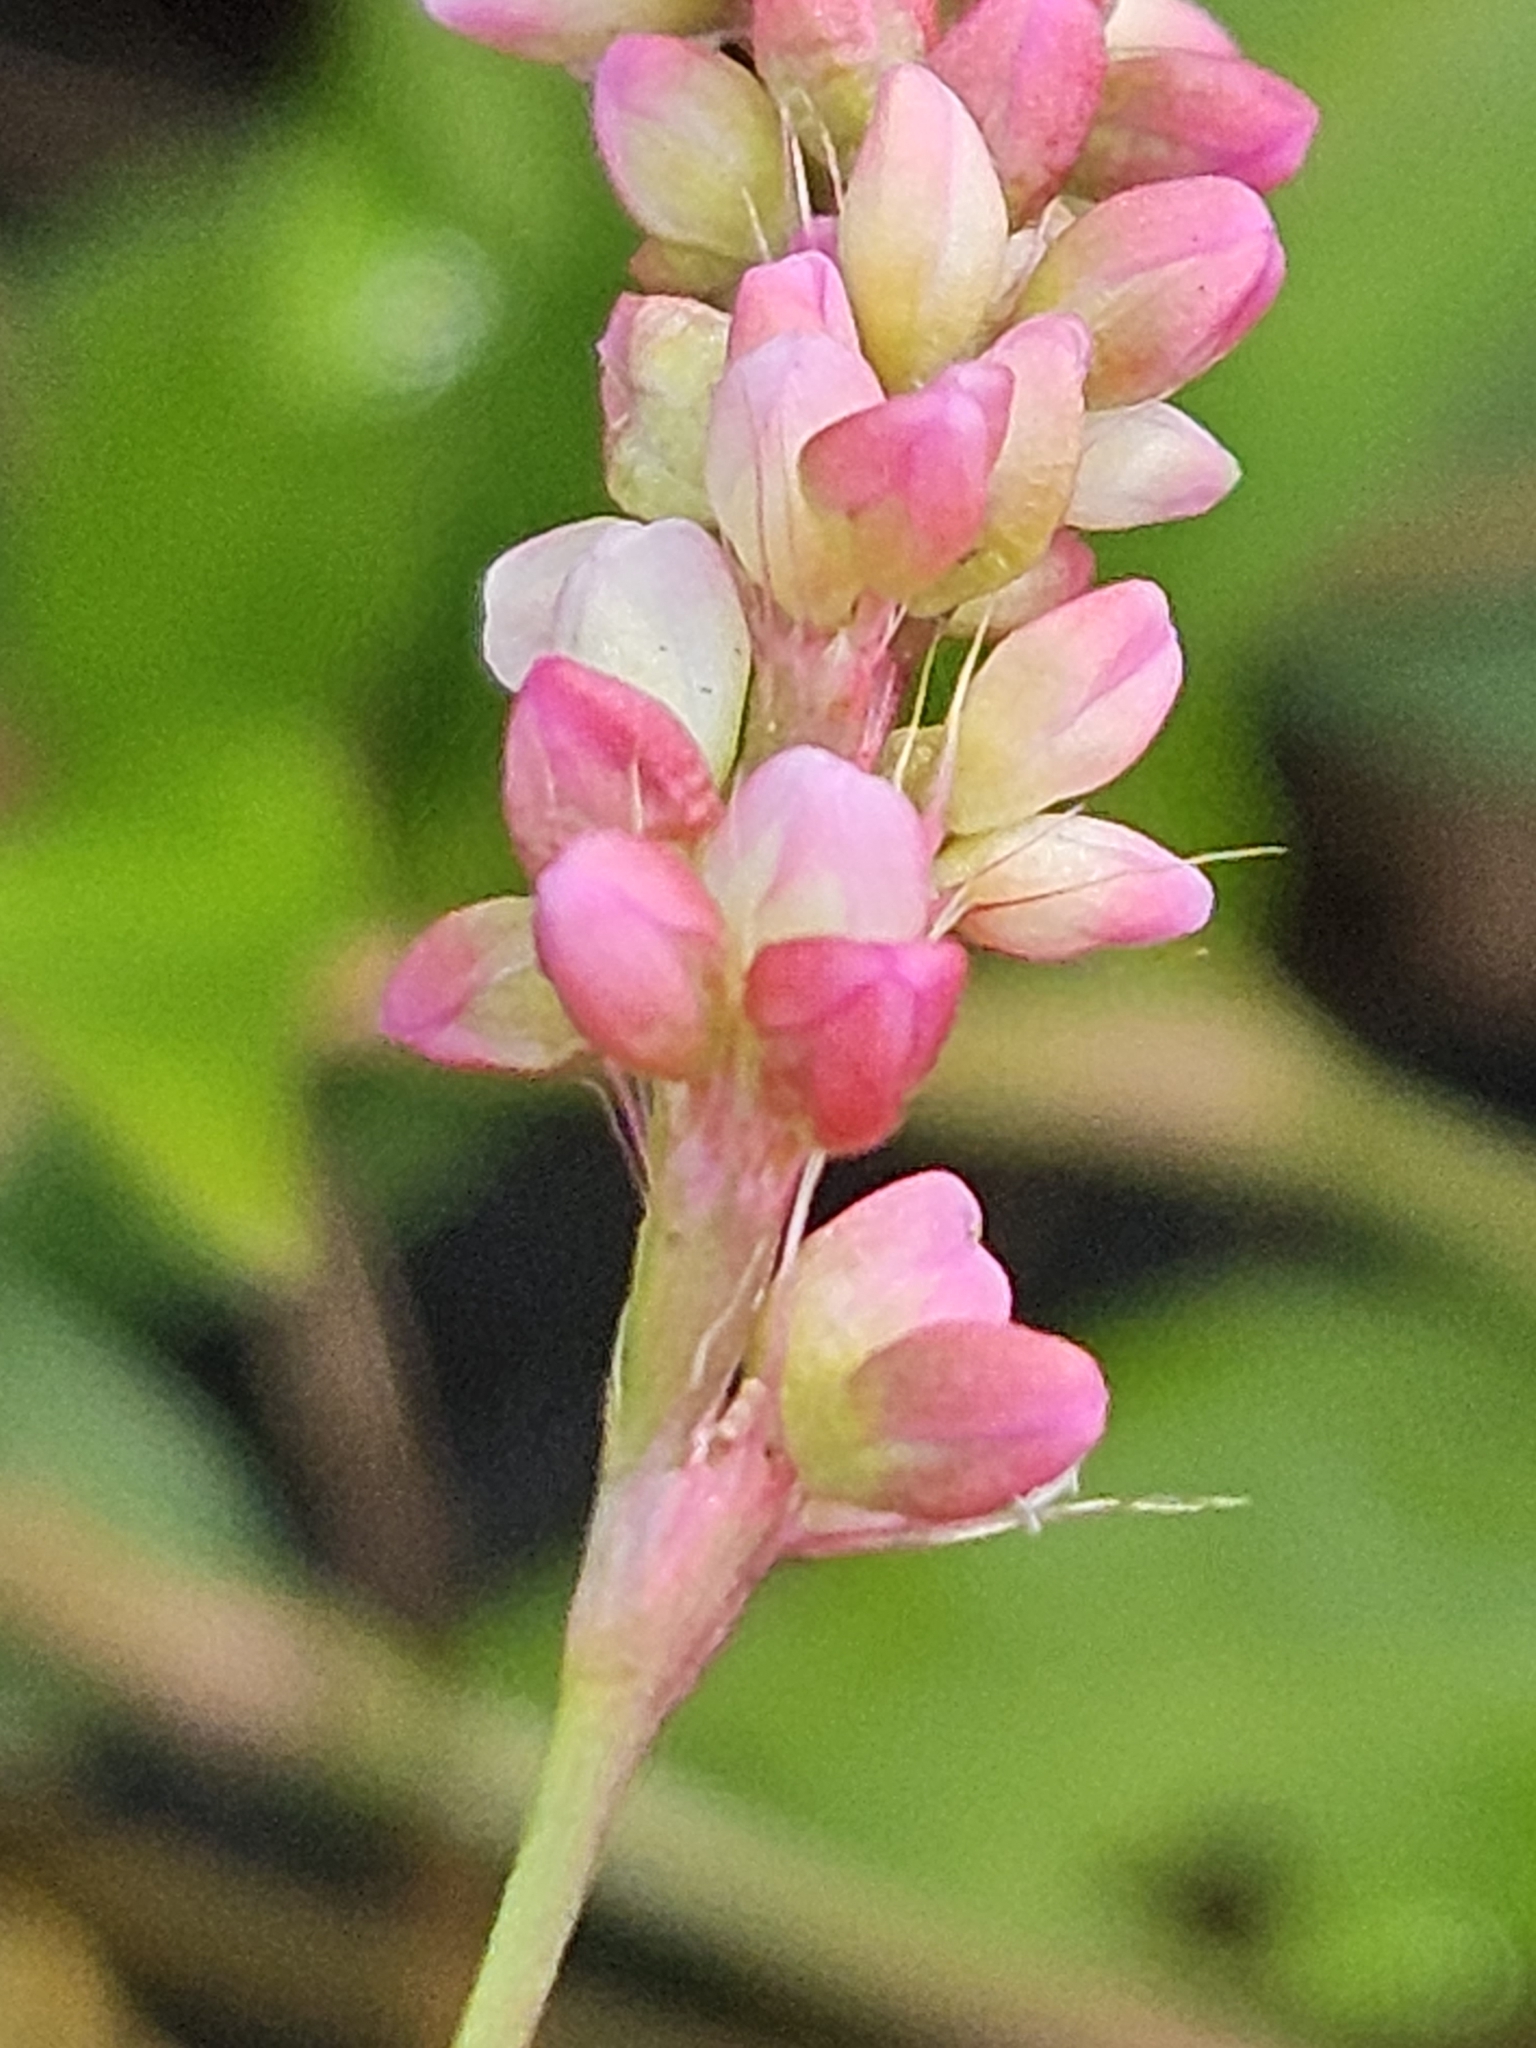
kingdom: Plantae
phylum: Tracheophyta
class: Magnoliopsida
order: Caryophyllales
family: Polygonaceae
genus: Persicaria
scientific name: Persicaria longiseta
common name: Bristly lady's-thumb
